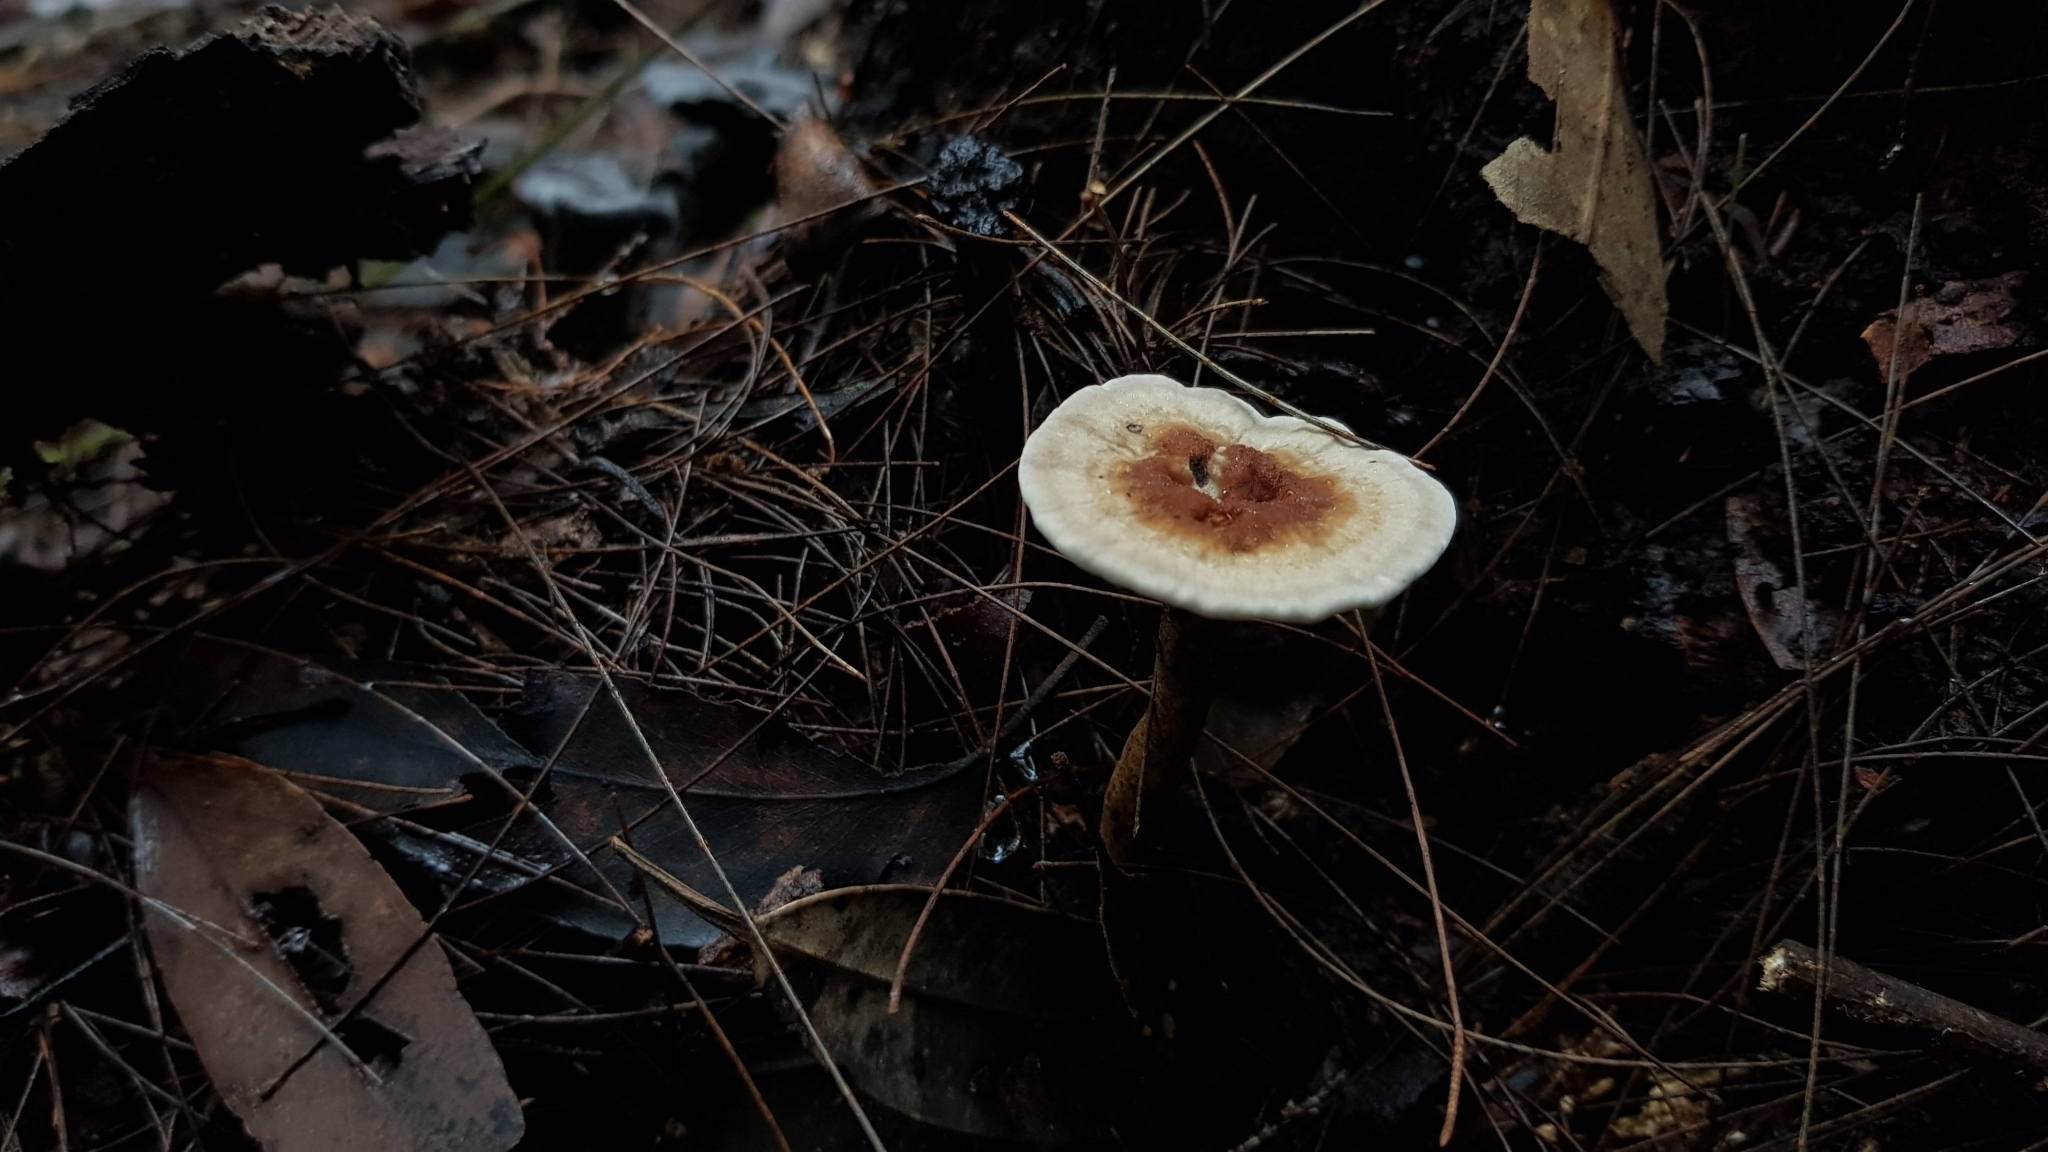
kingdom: Fungi
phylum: Basidiomycota
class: Agaricomycetes
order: Polyporales
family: Ganodermataceae
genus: Sanguinoderma
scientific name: Sanguinoderma rude
